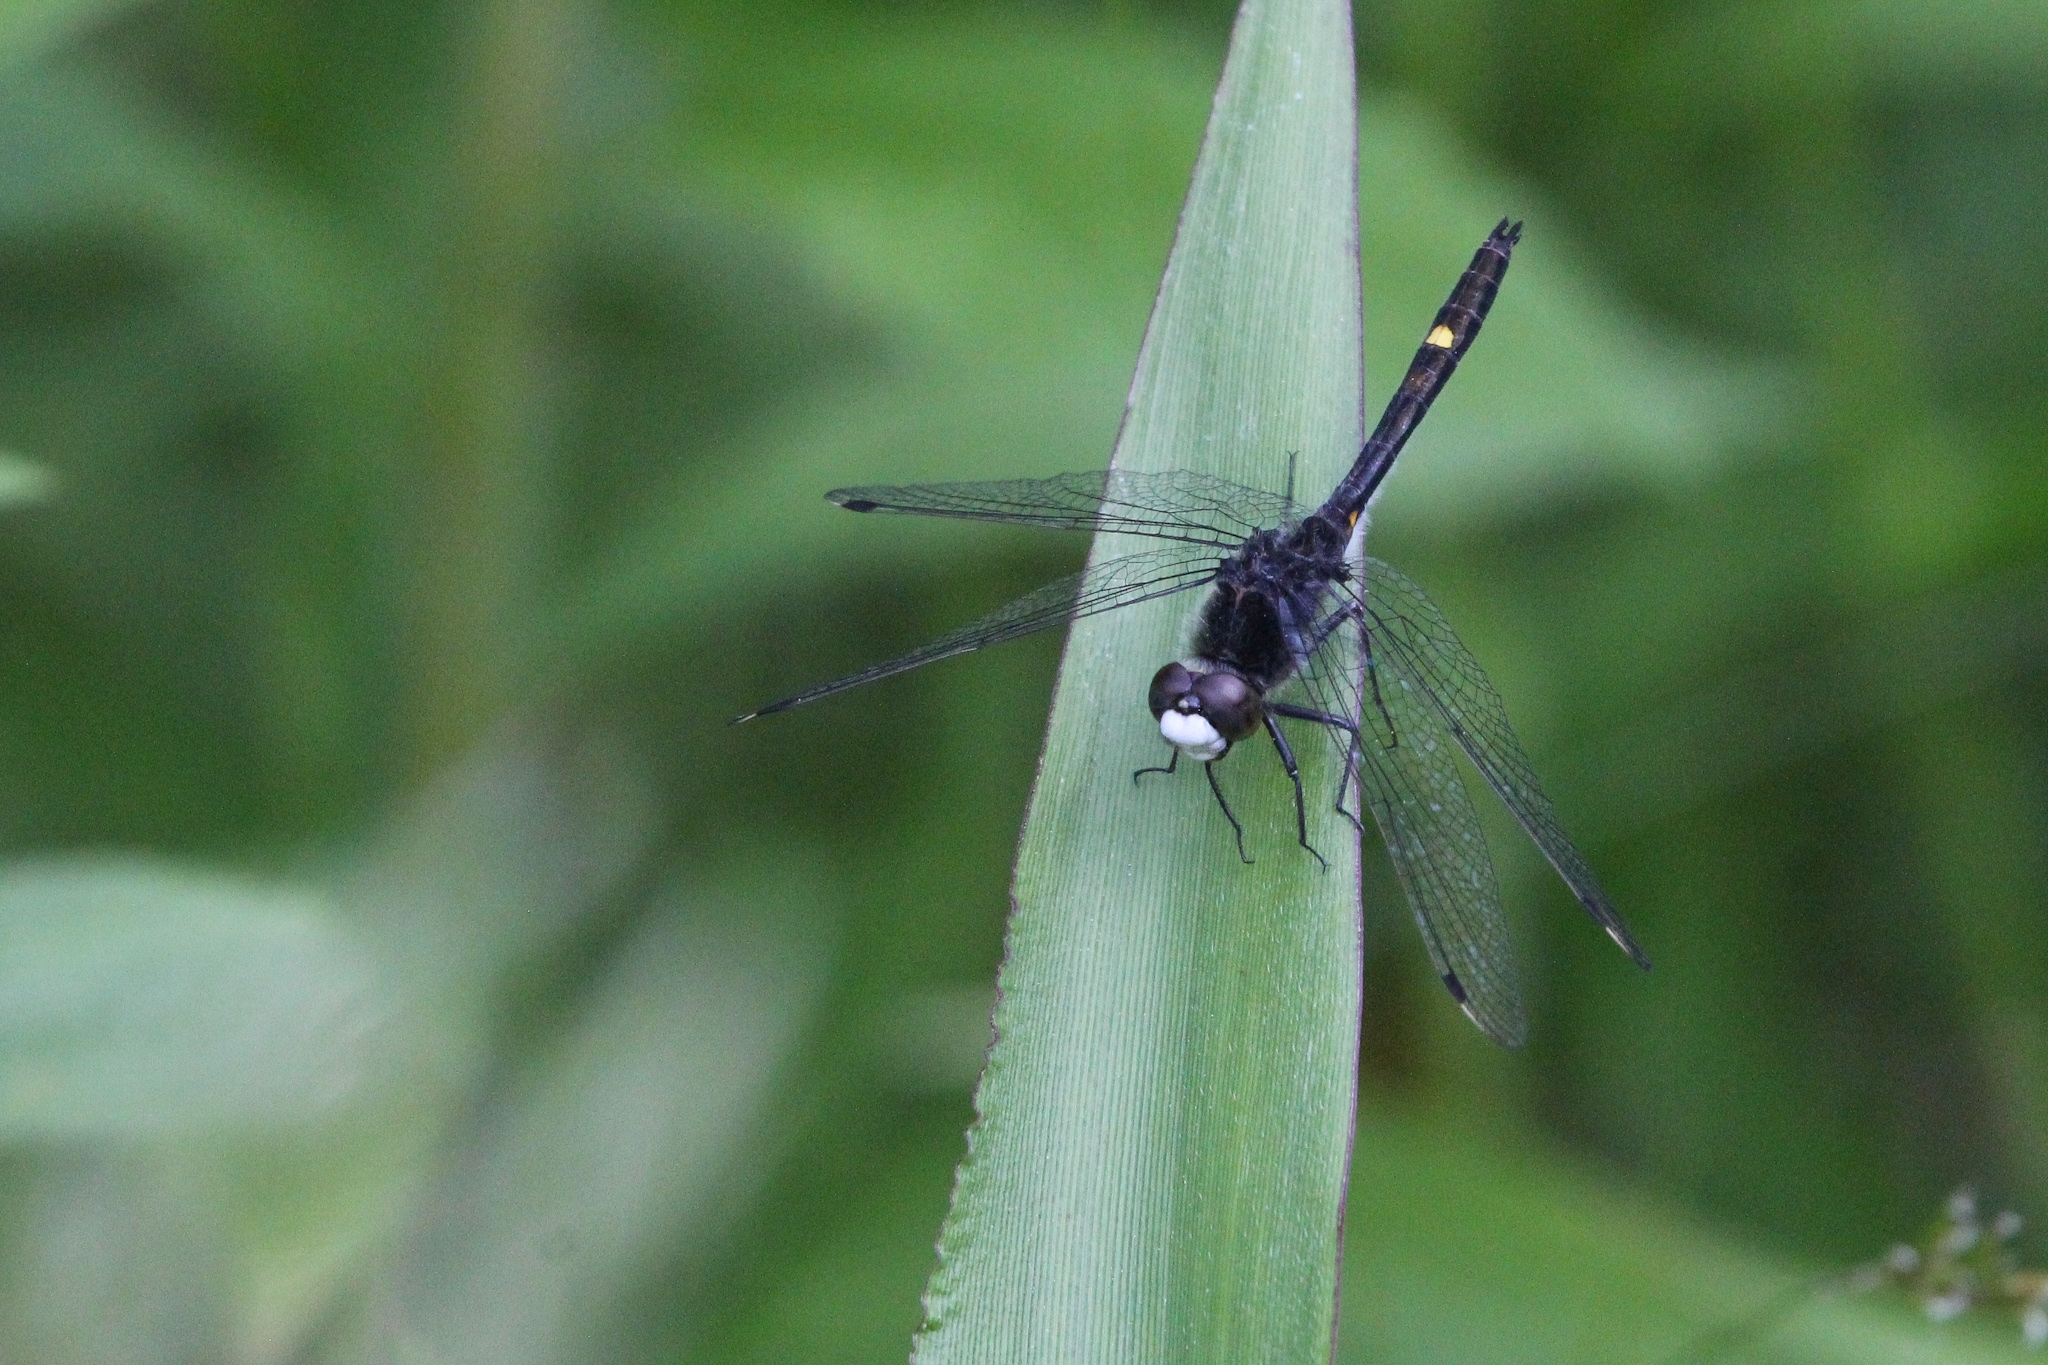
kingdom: Animalia
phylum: Arthropoda
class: Insecta
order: Odonata
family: Libellulidae
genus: Leucorrhinia
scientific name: Leucorrhinia intacta
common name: Dot-tailed whiteface
